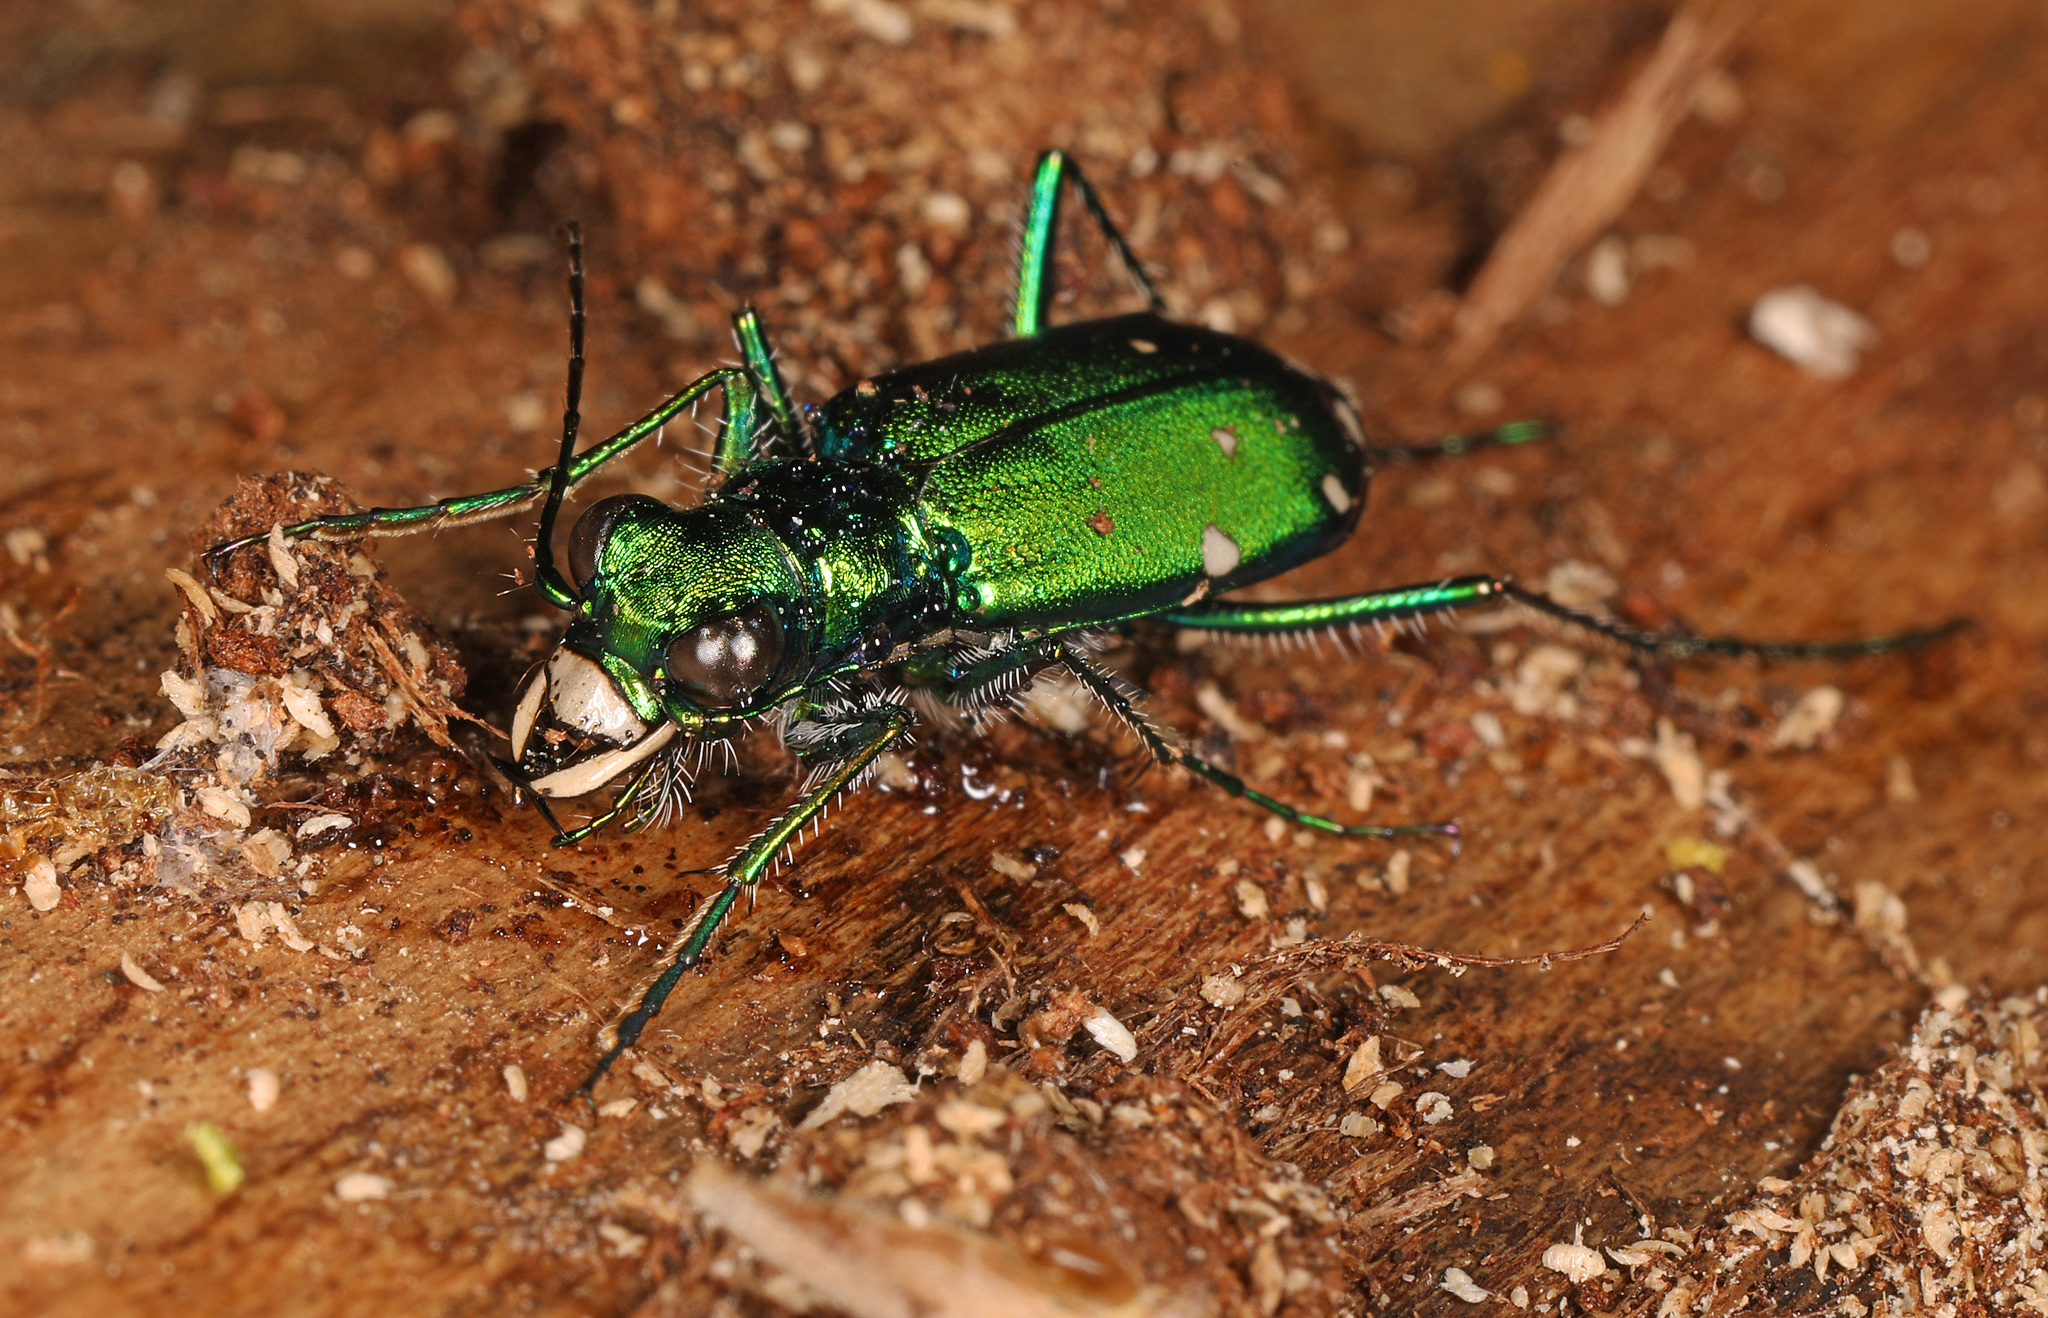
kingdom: Animalia
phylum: Arthropoda
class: Insecta
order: Coleoptera
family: Carabidae
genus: Cicindela
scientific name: Cicindela sexguttata
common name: Six-spotted tiger beetle
